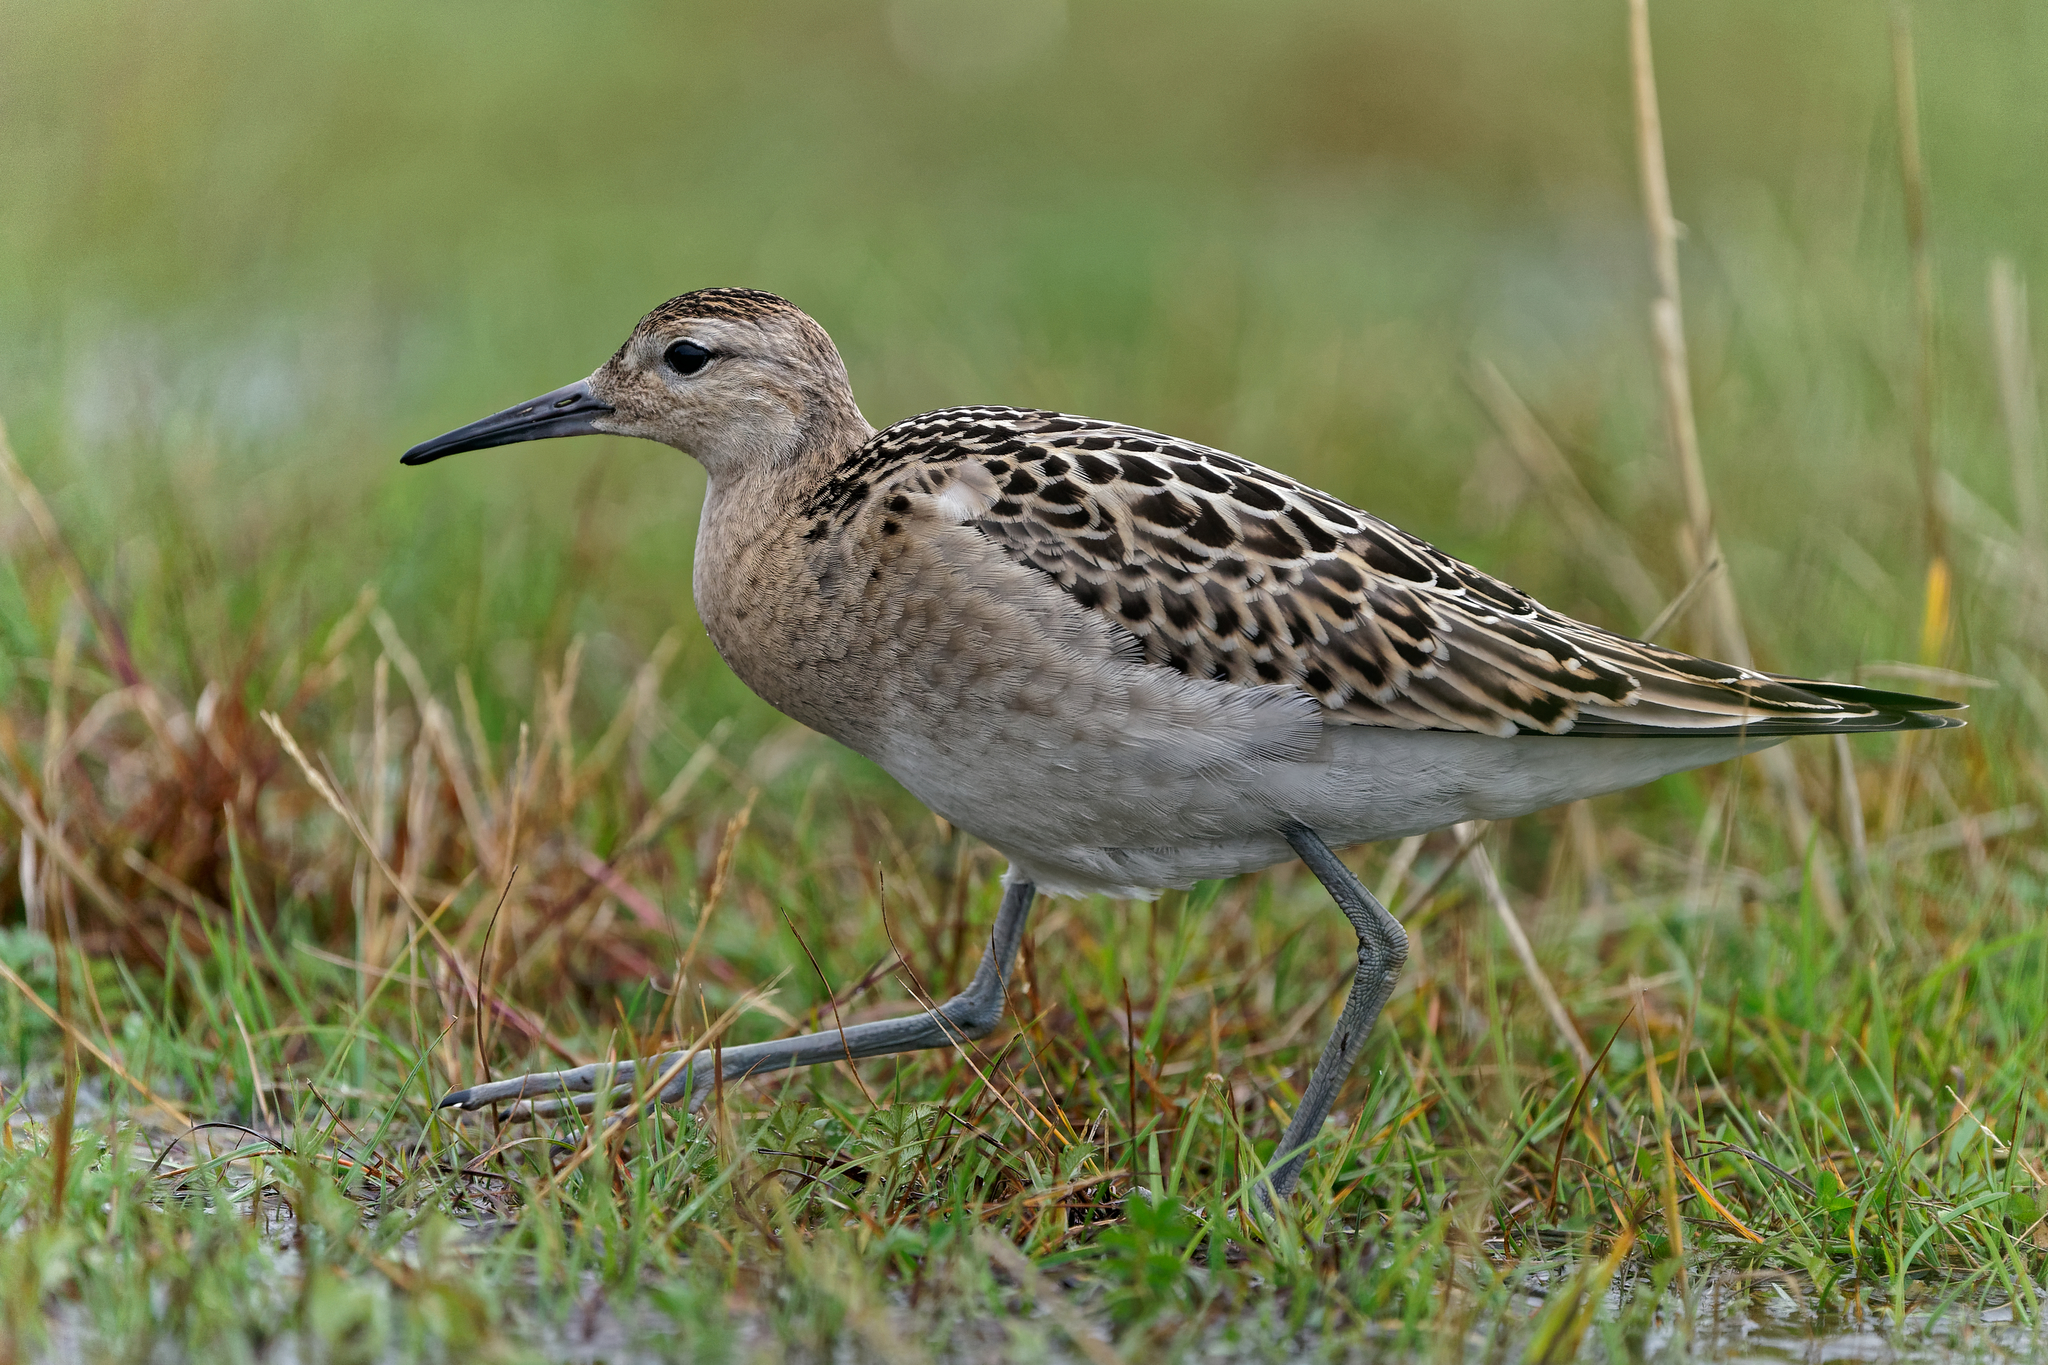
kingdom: Animalia
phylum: Chordata
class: Aves
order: Charadriiformes
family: Scolopacidae
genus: Calidris
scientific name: Calidris pugnax
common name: Ruff
